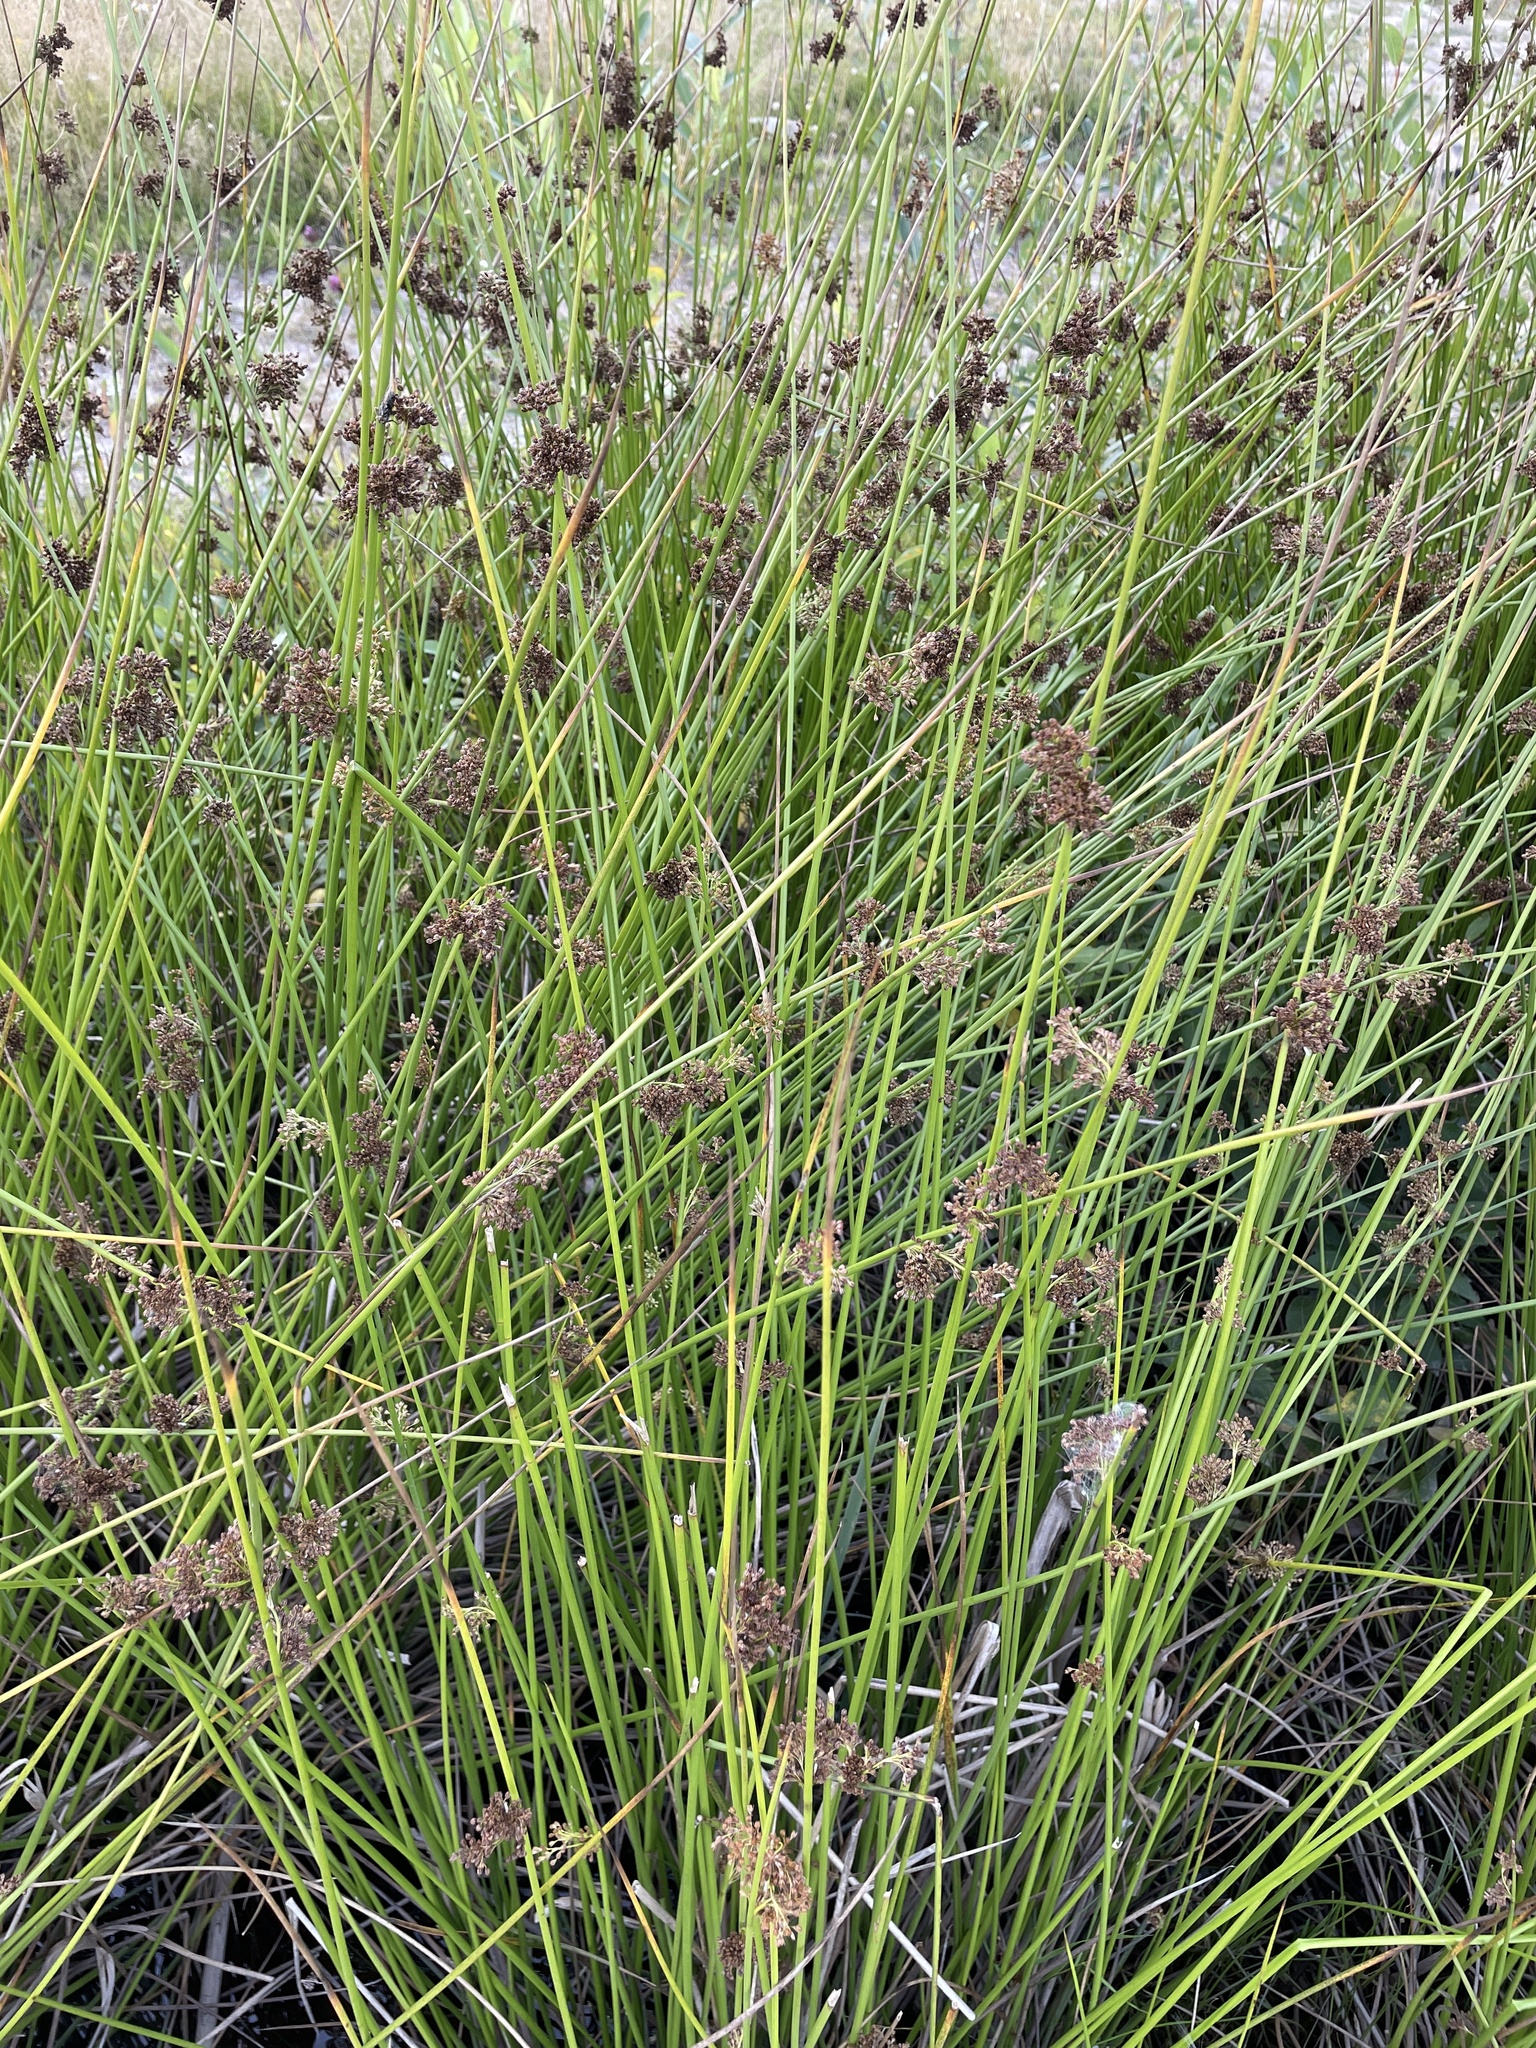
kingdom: Plantae
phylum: Tracheophyta
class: Liliopsida
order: Poales
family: Juncaceae
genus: Juncus
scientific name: Juncus effusus
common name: Soft rush
